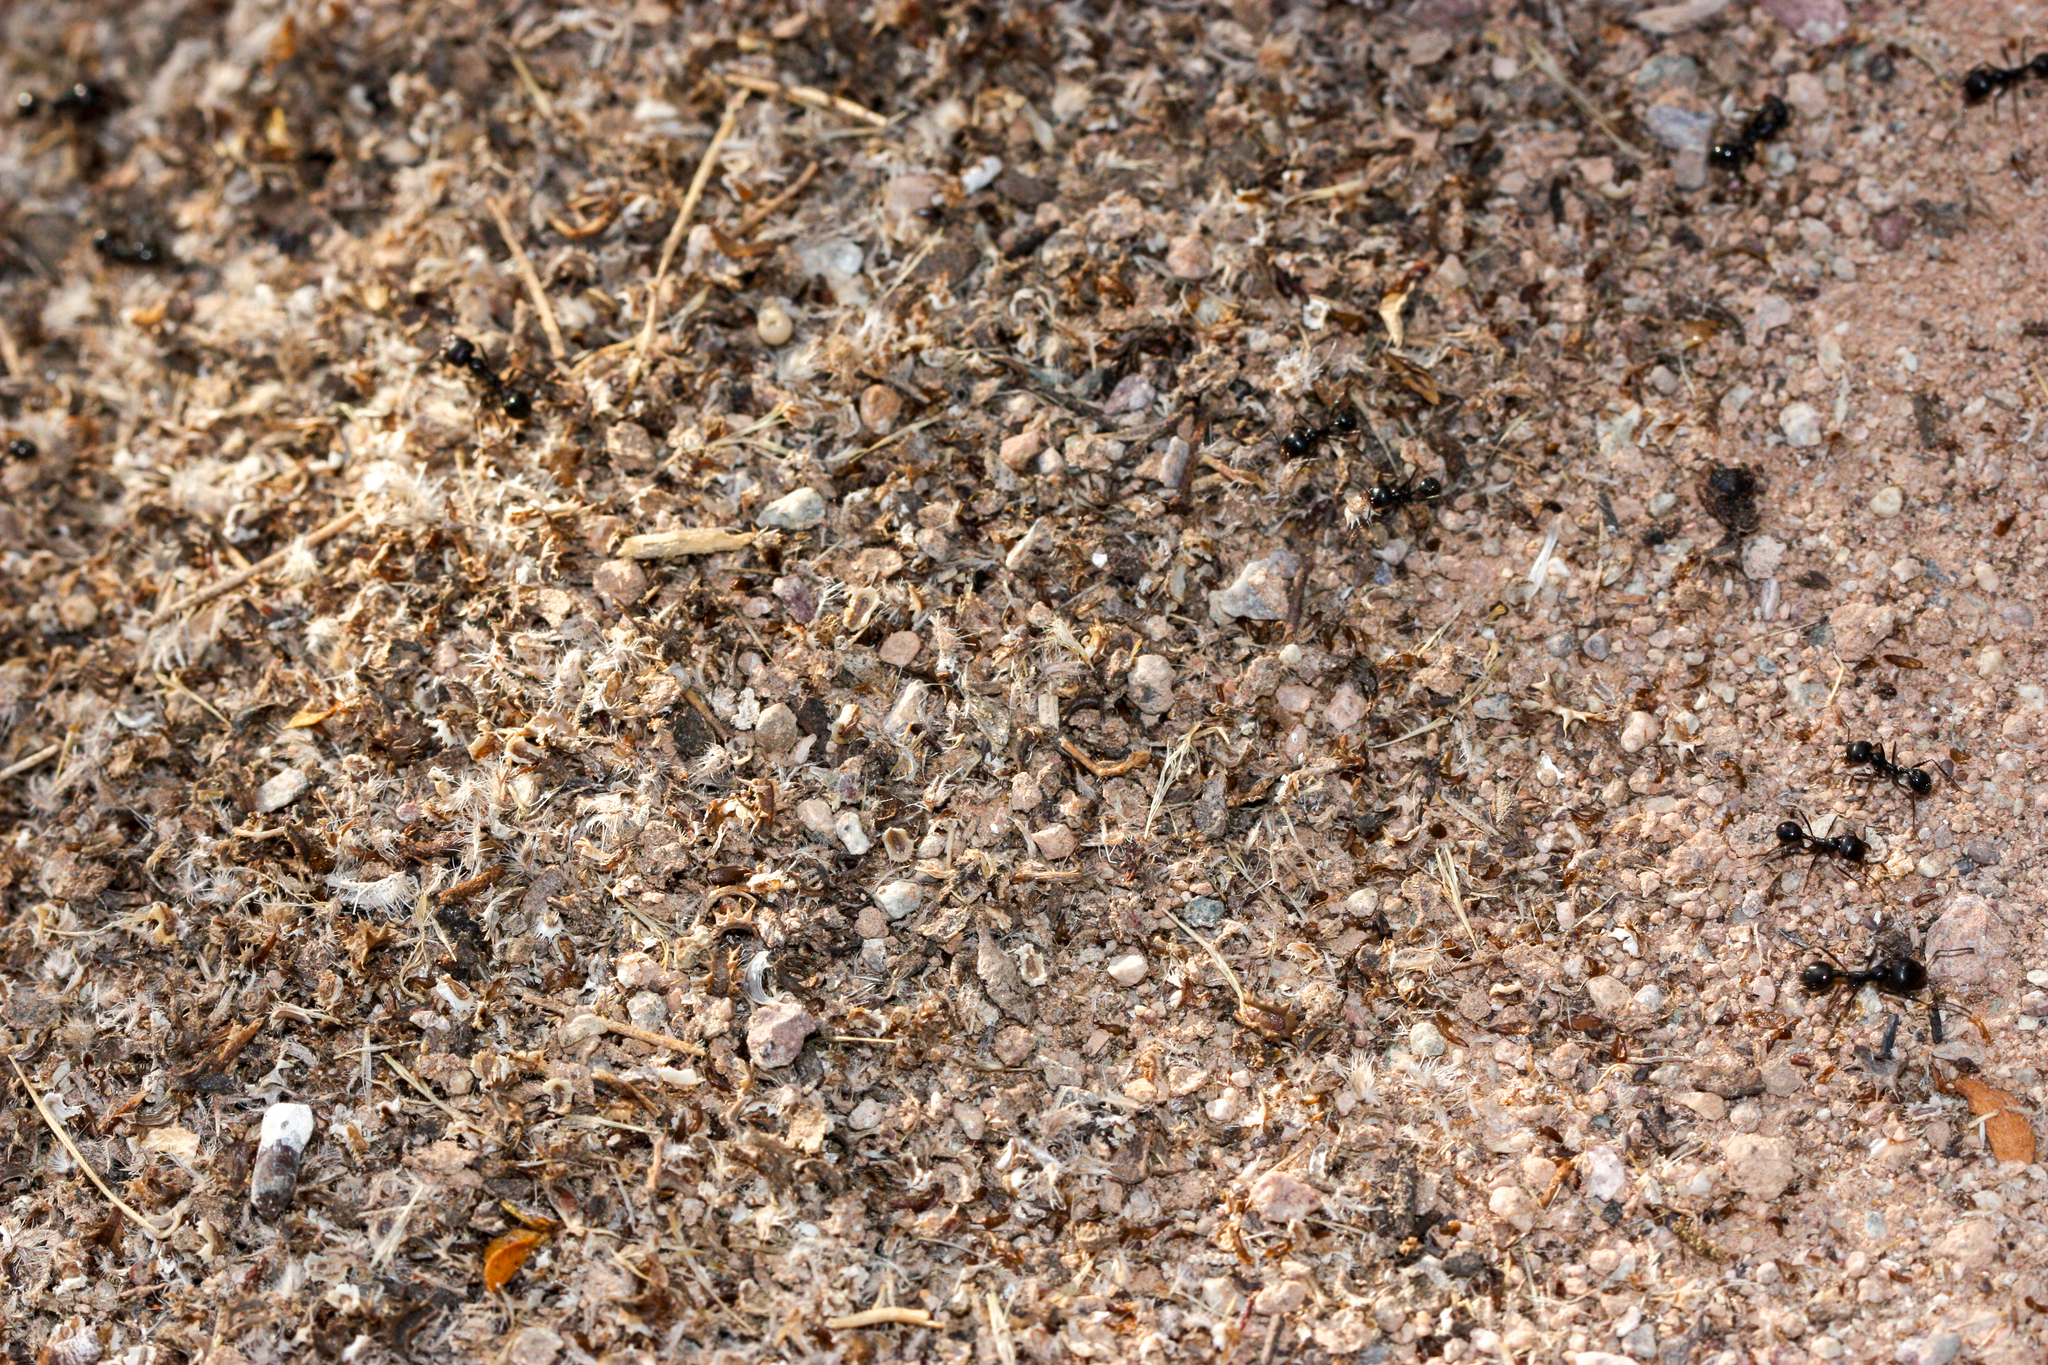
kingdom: Animalia
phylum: Arthropoda
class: Insecta
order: Hymenoptera
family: Formicidae
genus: Messor
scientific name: Messor pergandei
